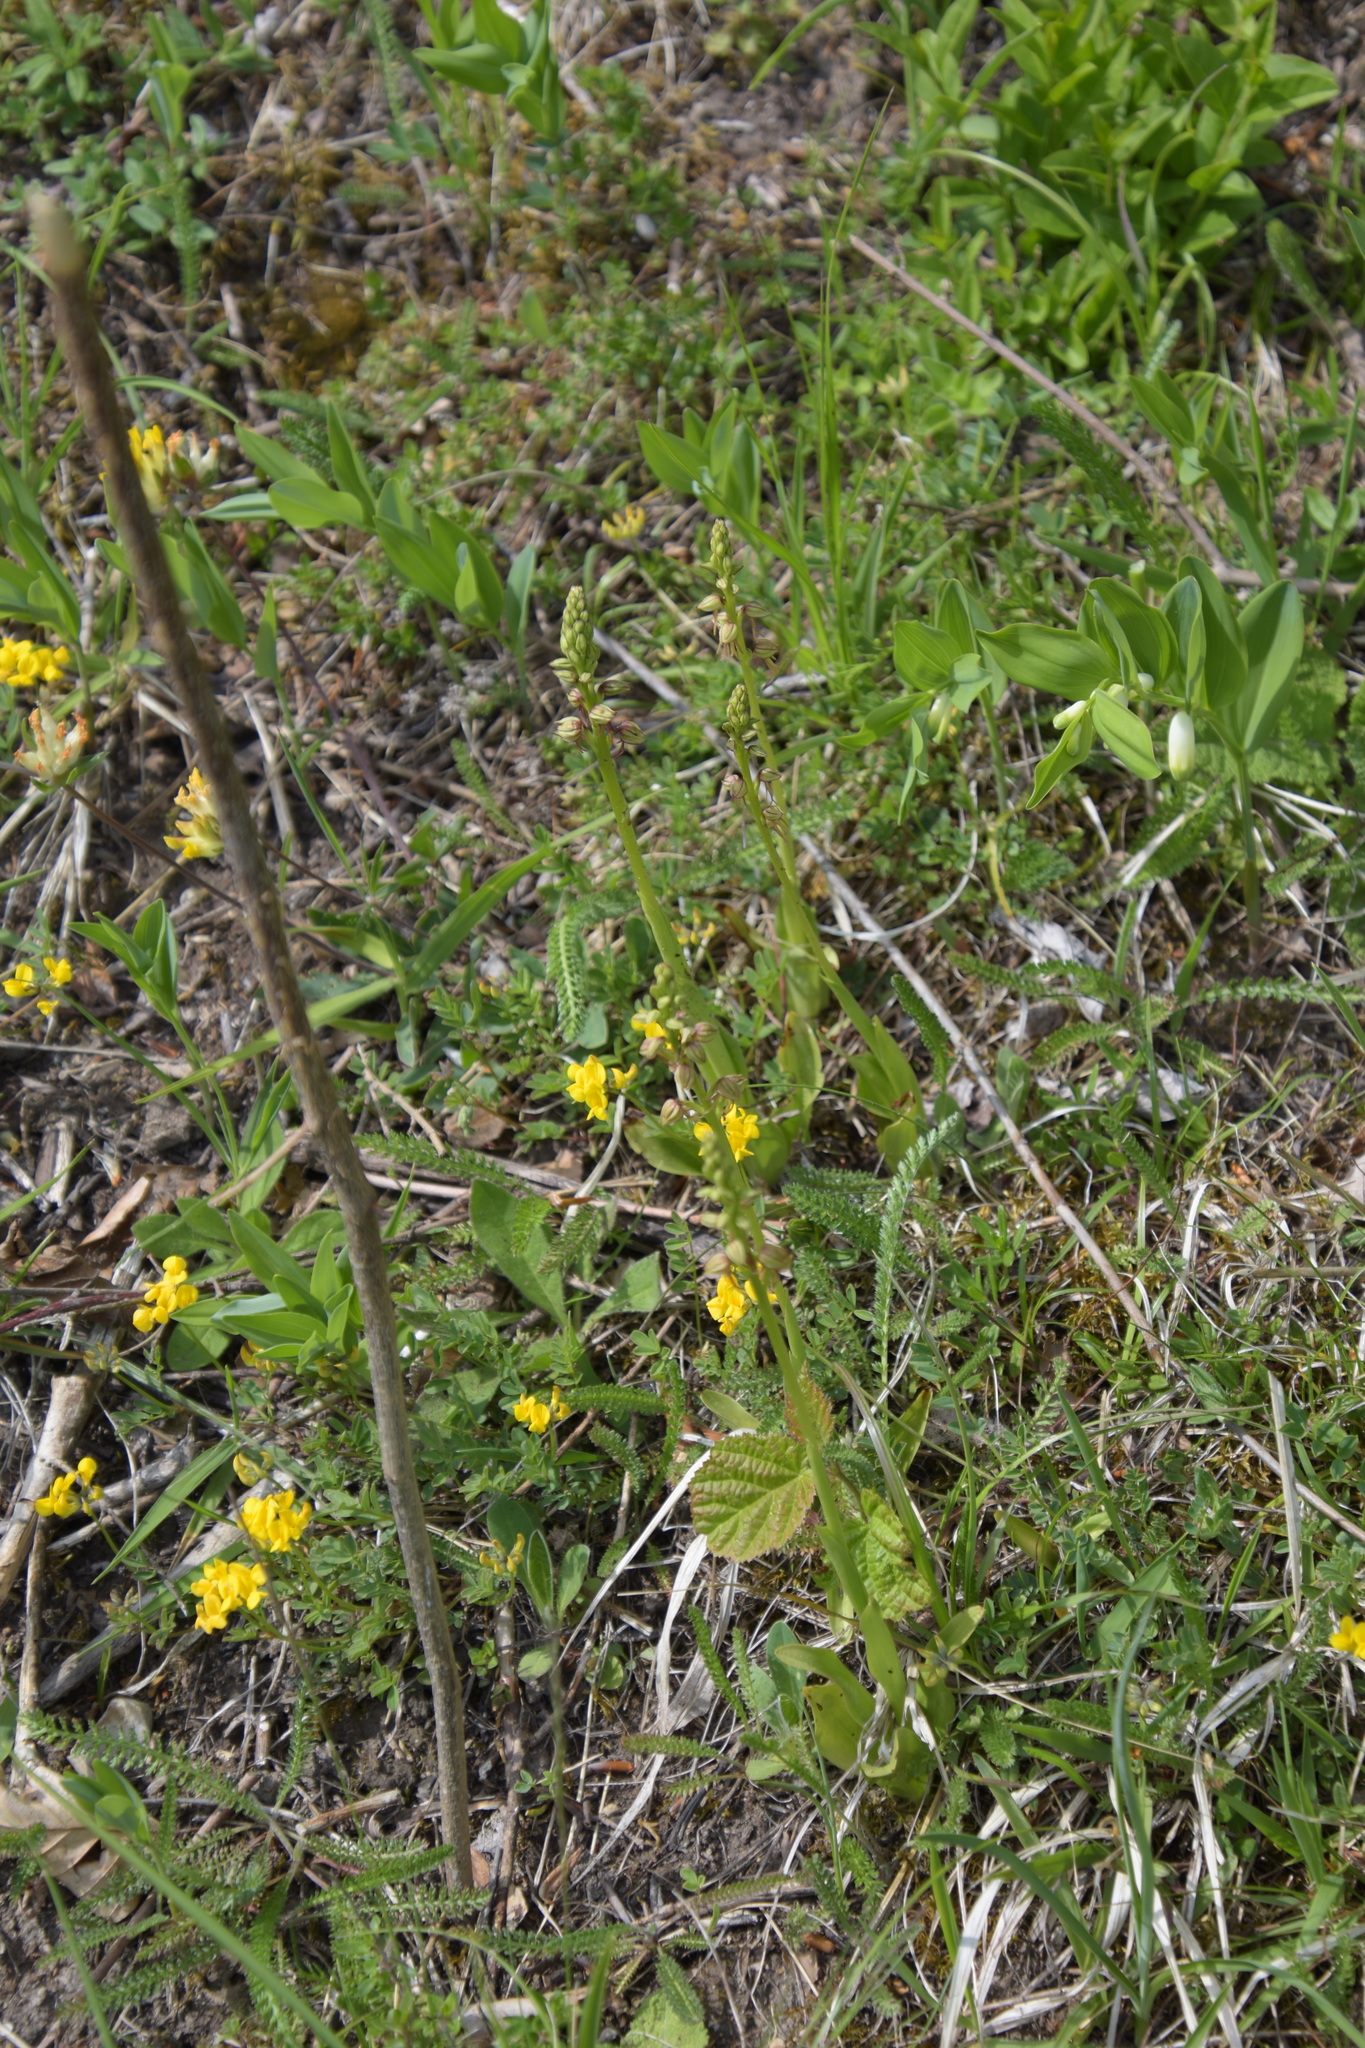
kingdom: Plantae
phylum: Tracheophyta
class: Liliopsida
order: Asparagales
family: Orchidaceae
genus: Orchis
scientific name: Orchis anthropophora
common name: Man orchid
